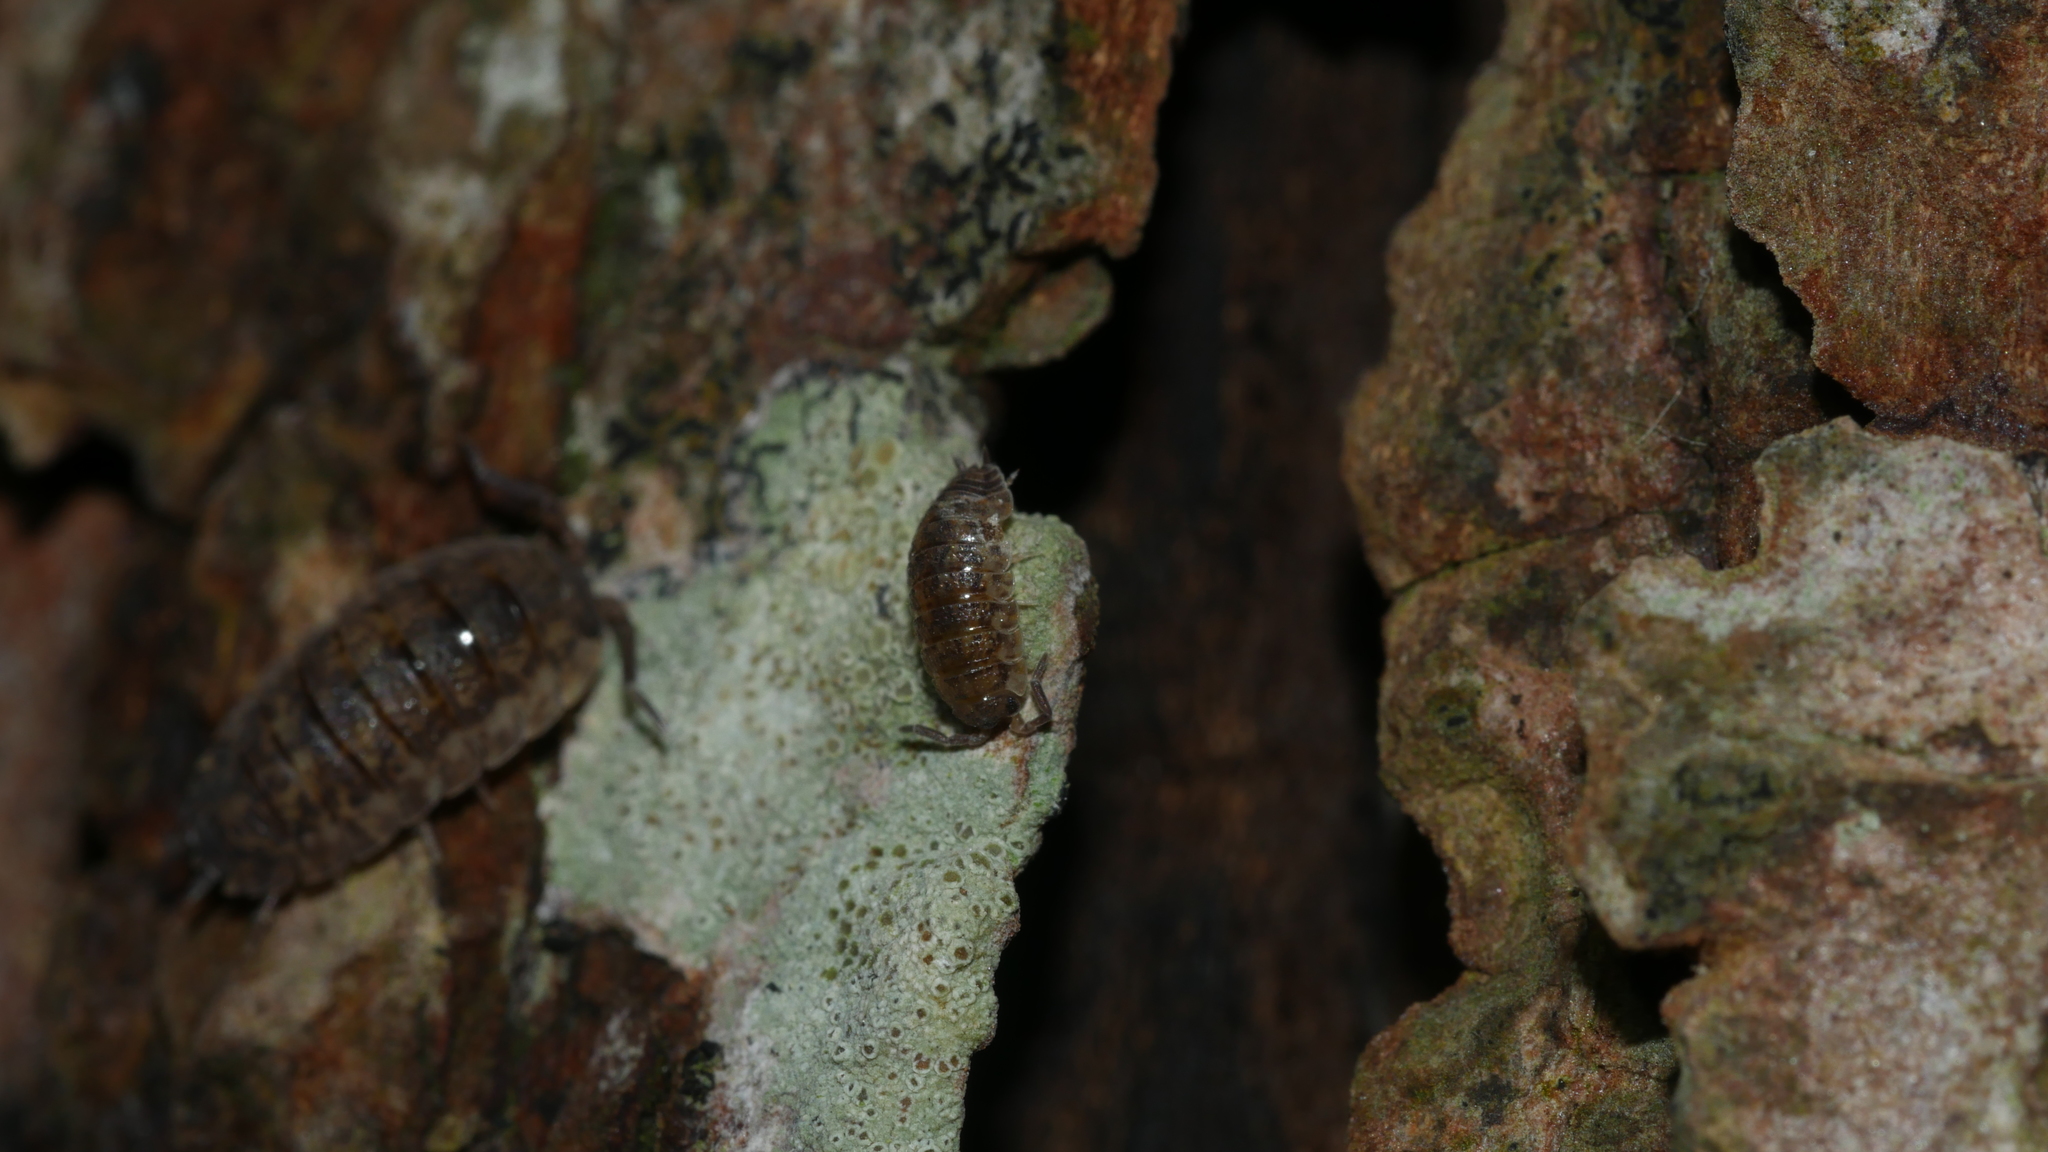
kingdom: Animalia
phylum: Arthropoda
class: Malacostraca
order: Isopoda
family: Porcellionidae
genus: Porcellio
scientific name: Porcellio scaber
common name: Common rough woodlouse
